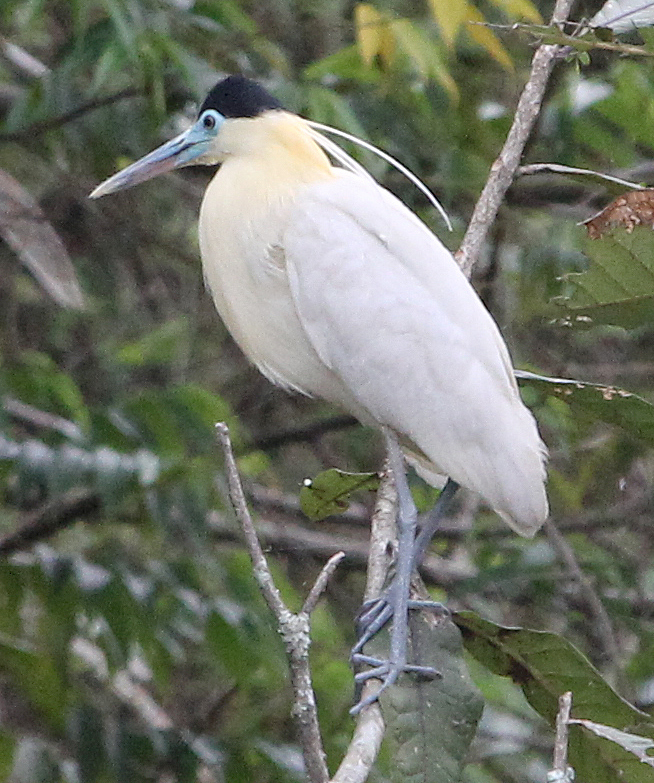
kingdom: Animalia
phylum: Chordata
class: Aves
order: Pelecaniformes
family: Ardeidae
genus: Pilherodius
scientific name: Pilherodius pileatus
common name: Capped heron
